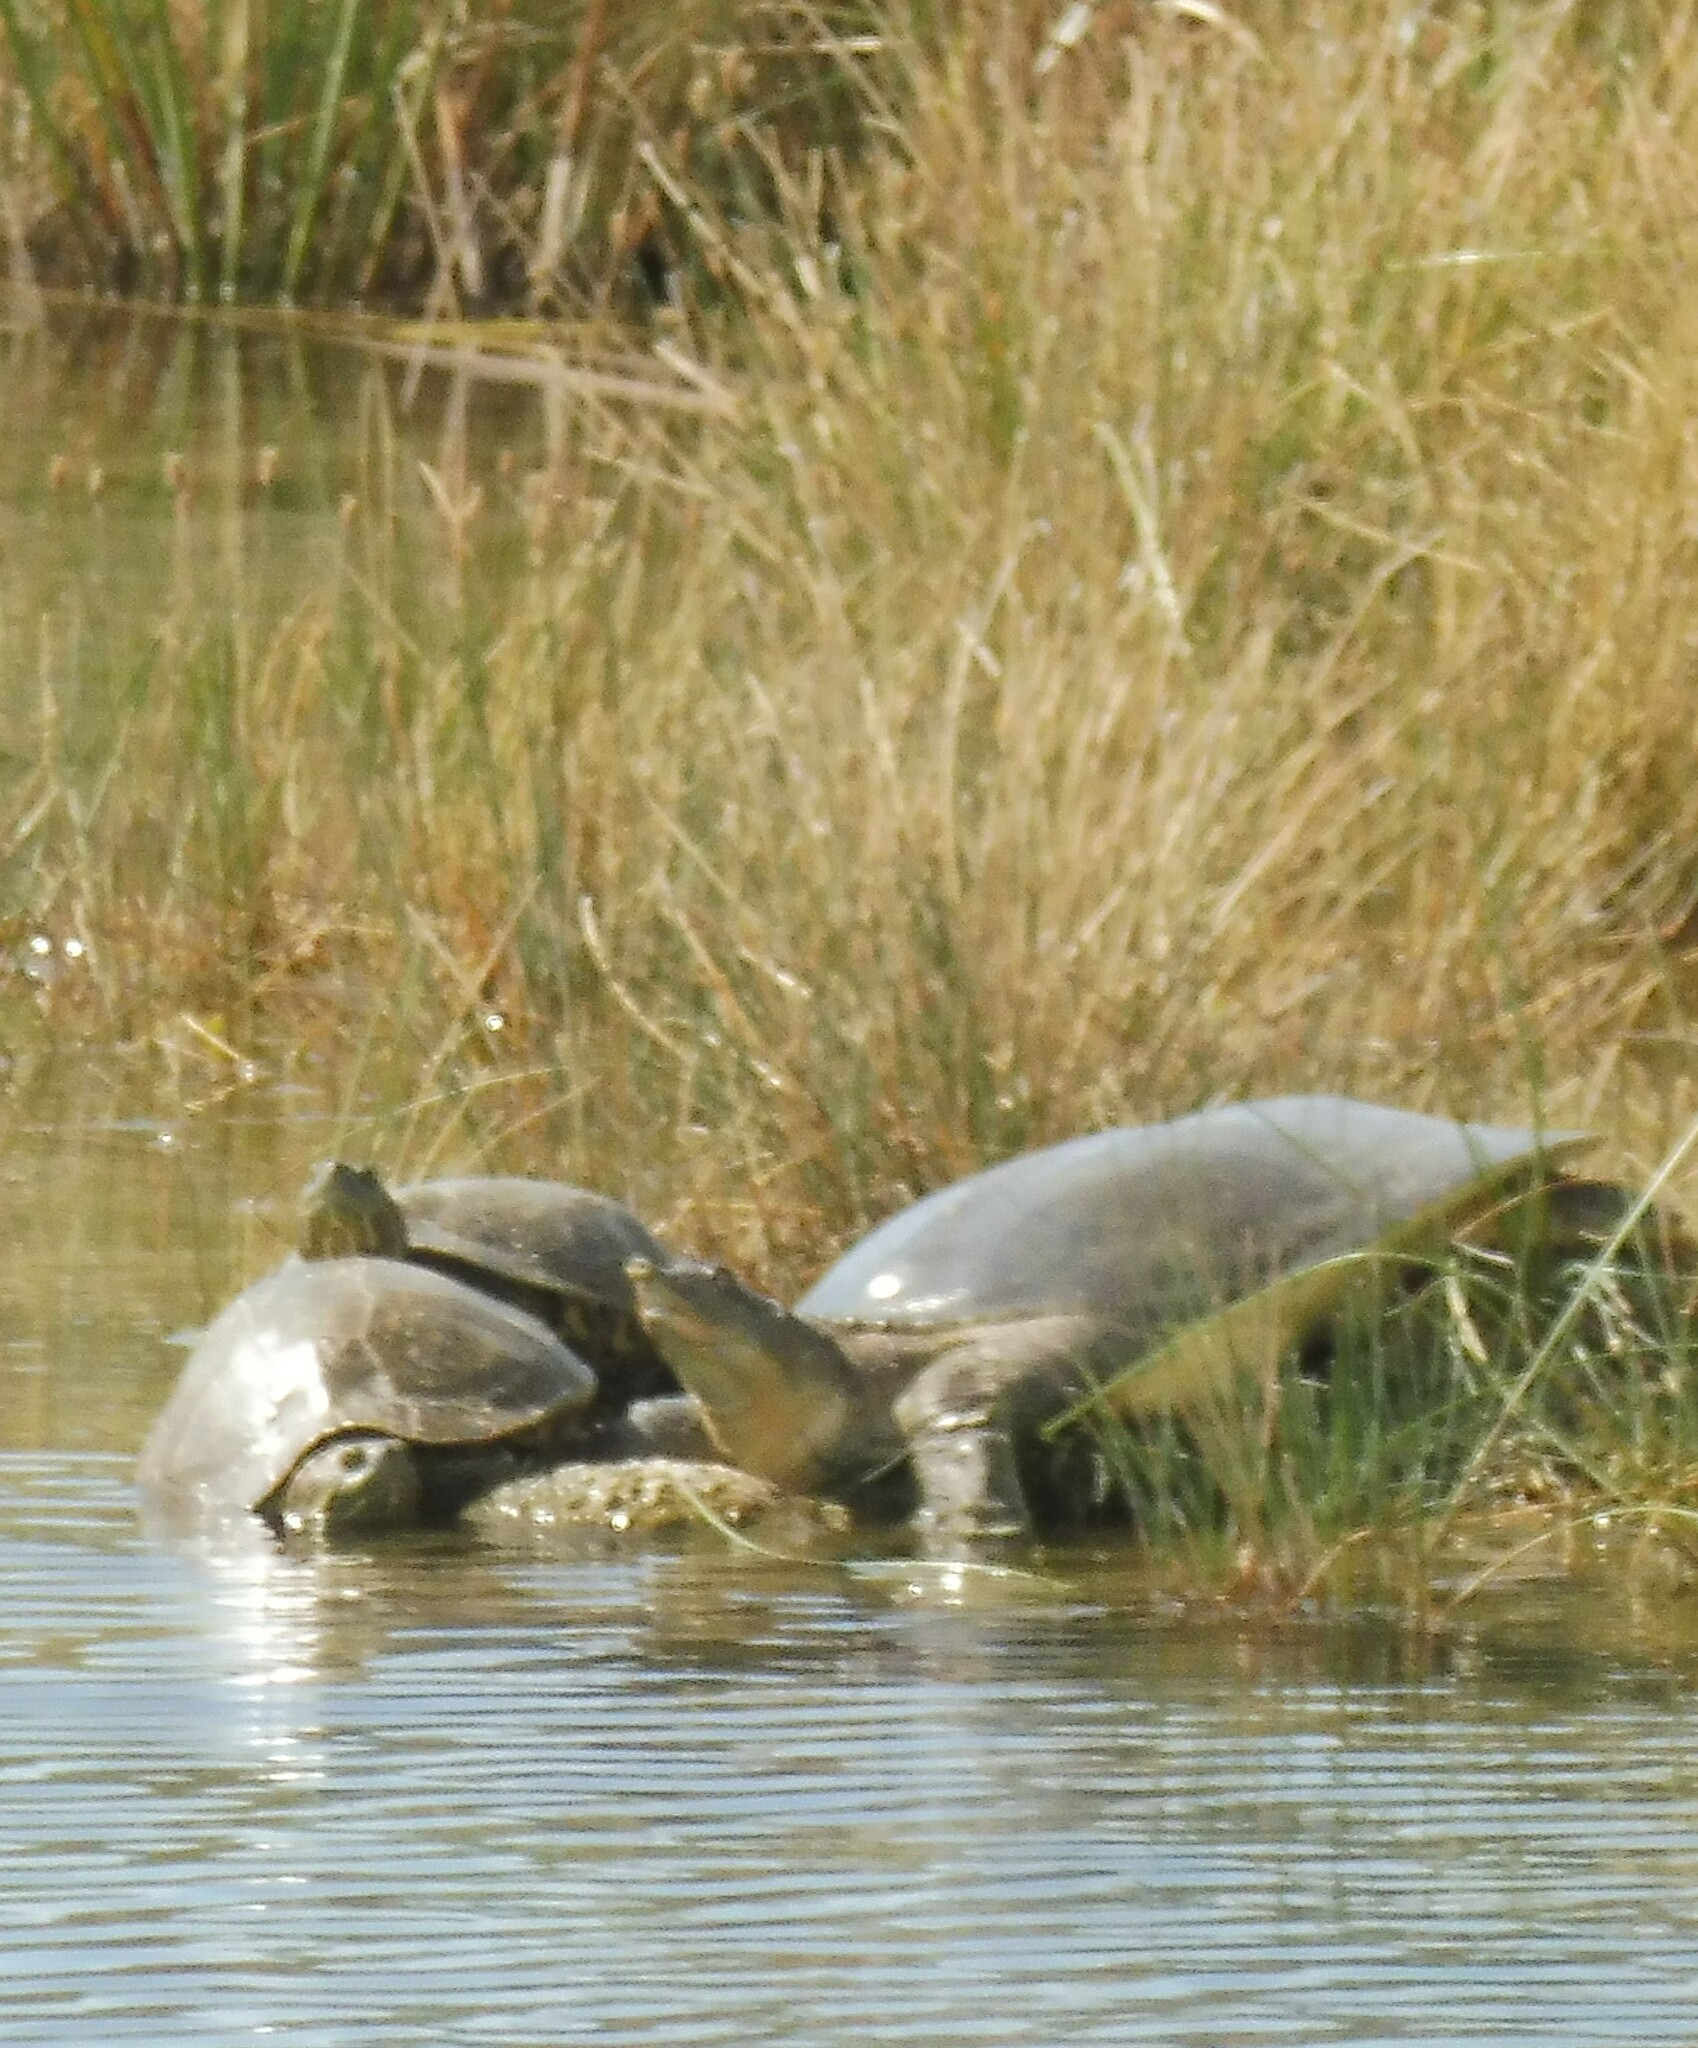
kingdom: Animalia
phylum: Chordata
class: Testudines
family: Trionychidae
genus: Apalone
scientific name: Apalone spinifera
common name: Spiny softshell turtle
